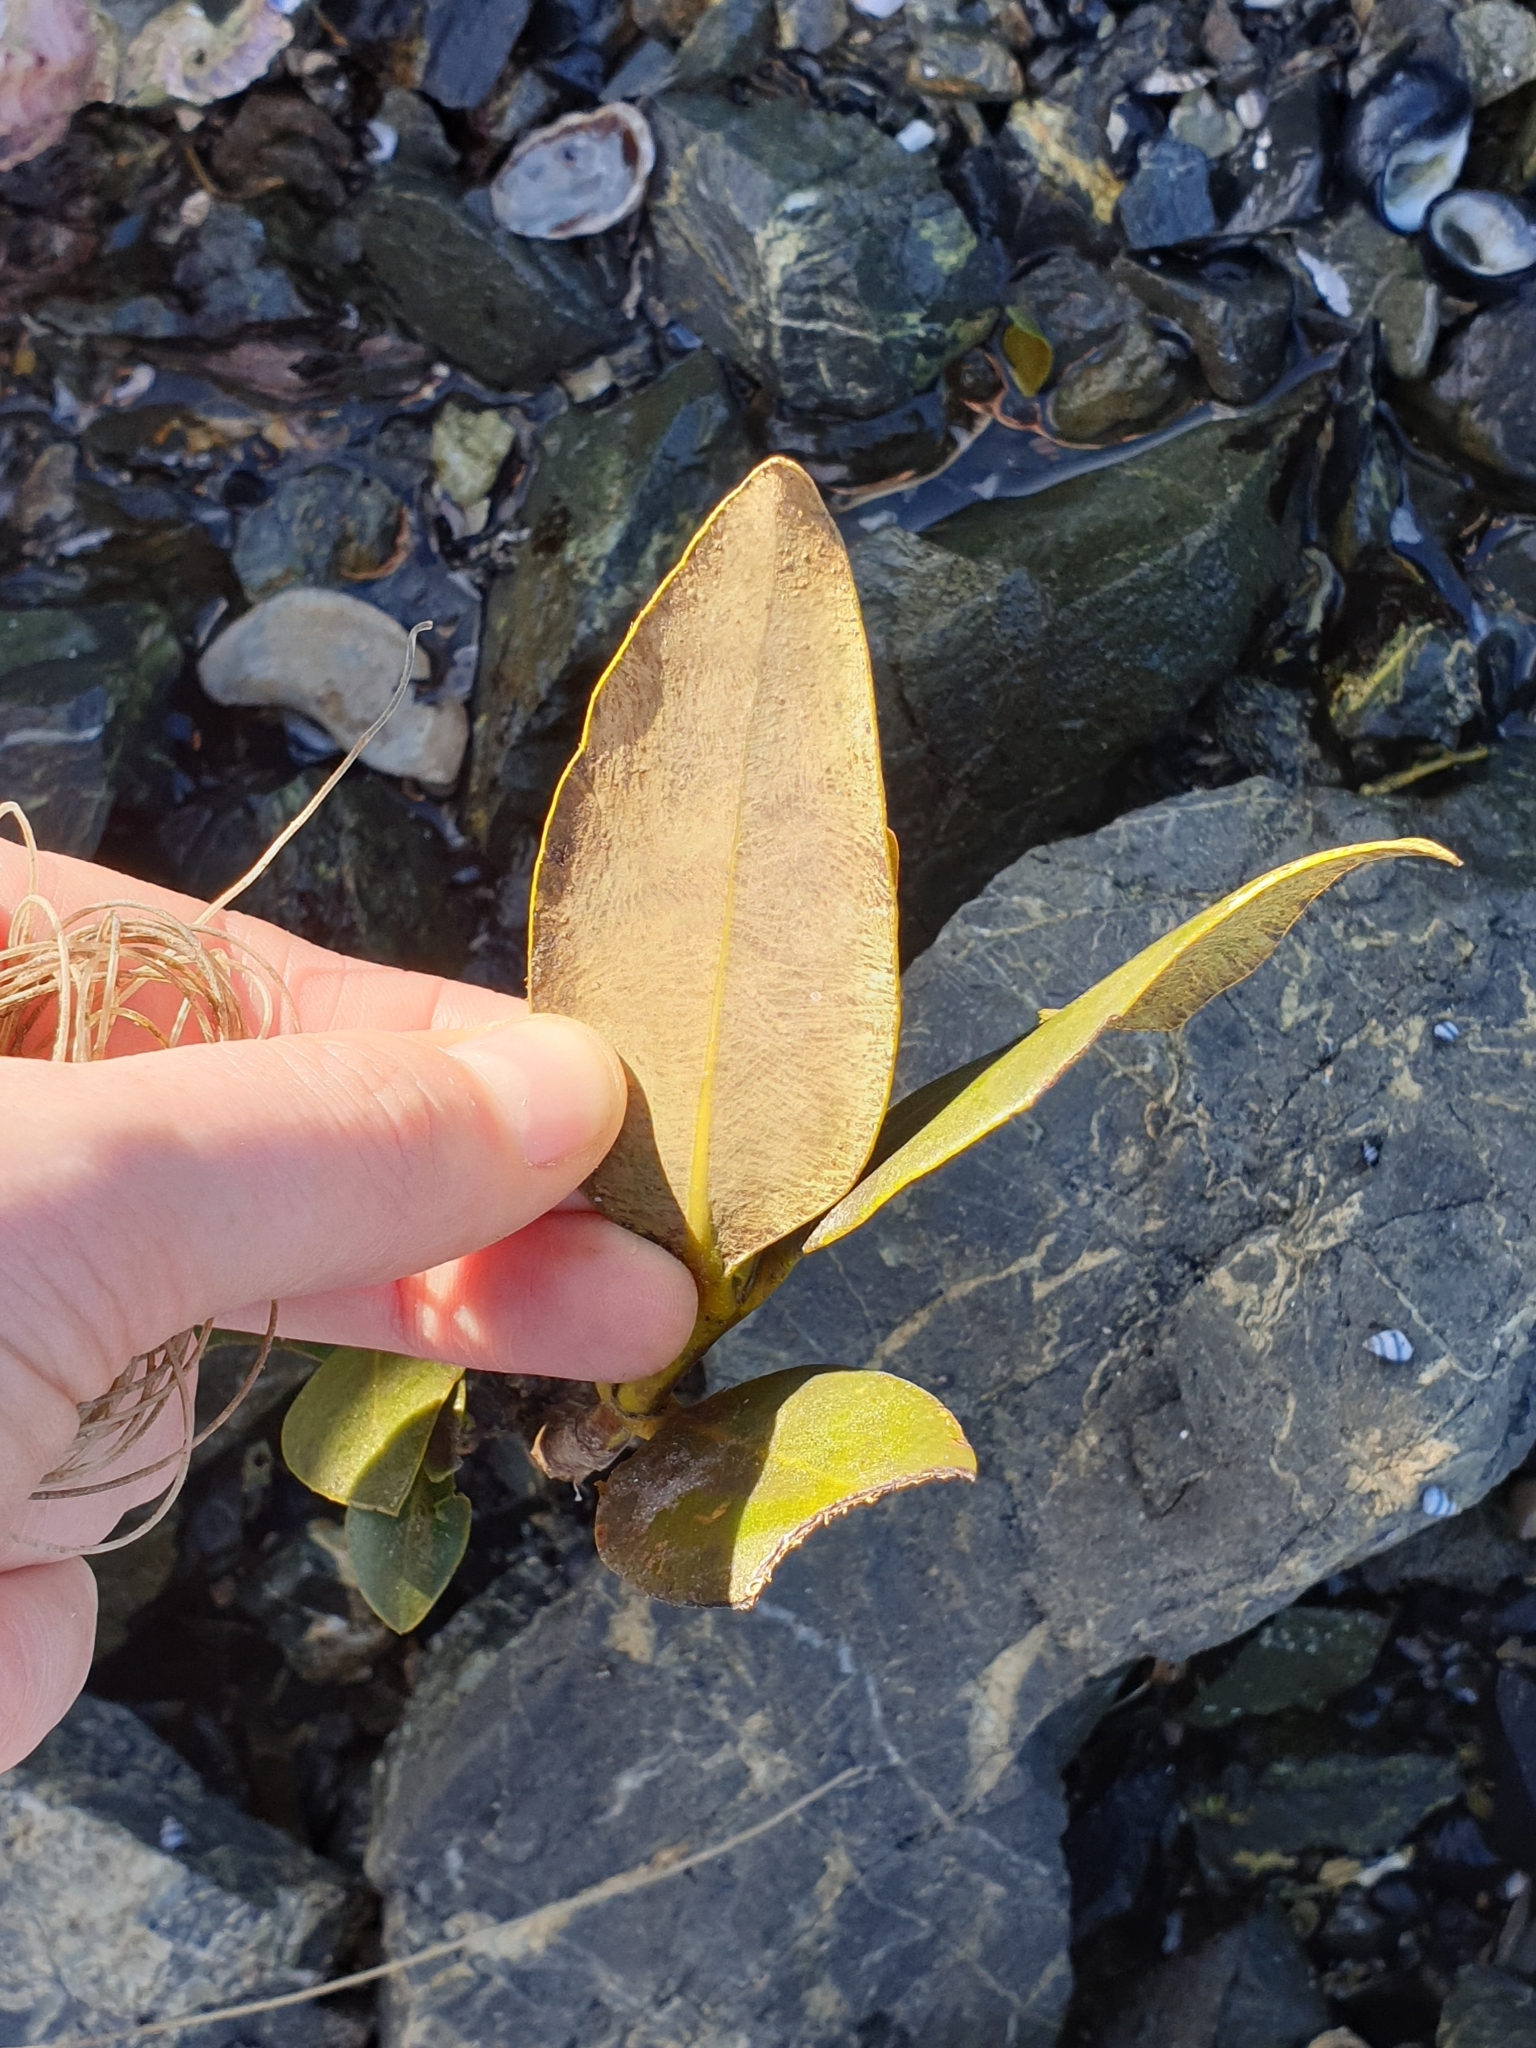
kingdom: Plantae
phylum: Tracheophyta
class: Magnoliopsida
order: Lamiales
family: Acanthaceae
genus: Avicennia
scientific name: Avicennia marina
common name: Gray mangrove
